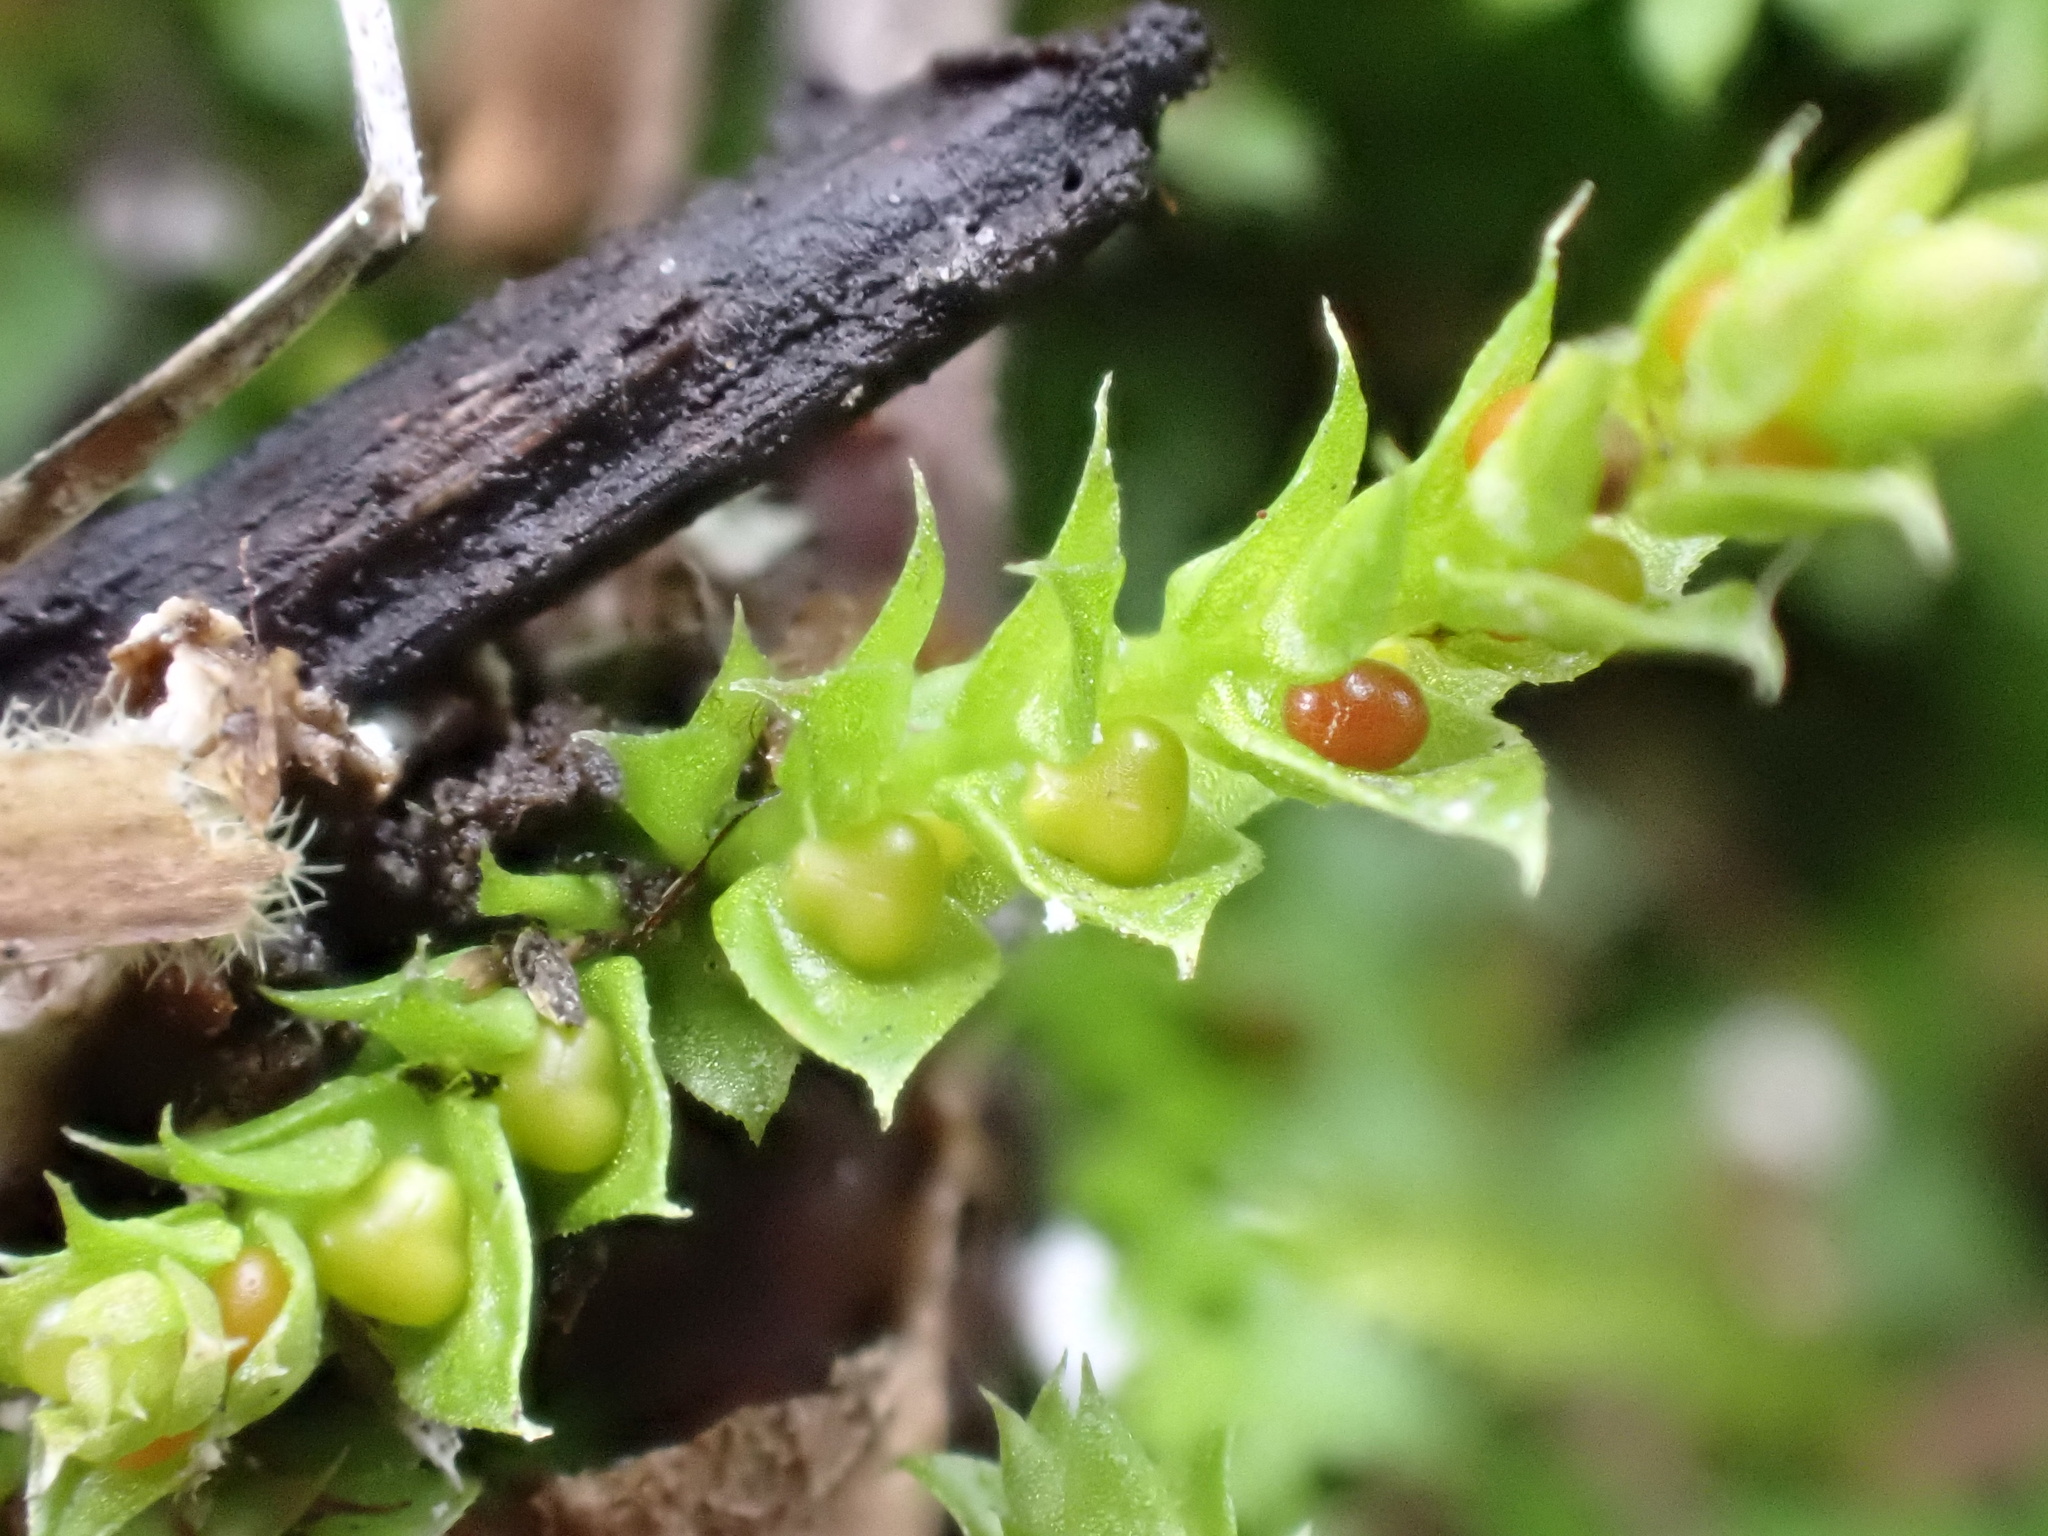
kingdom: Plantae
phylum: Tracheophyta
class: Lycopodiopsida
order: Selaginellales
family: Selaginellaceae
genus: Selaginella
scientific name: Selaginella denticulata
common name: Toothed-leaved clubmoss
